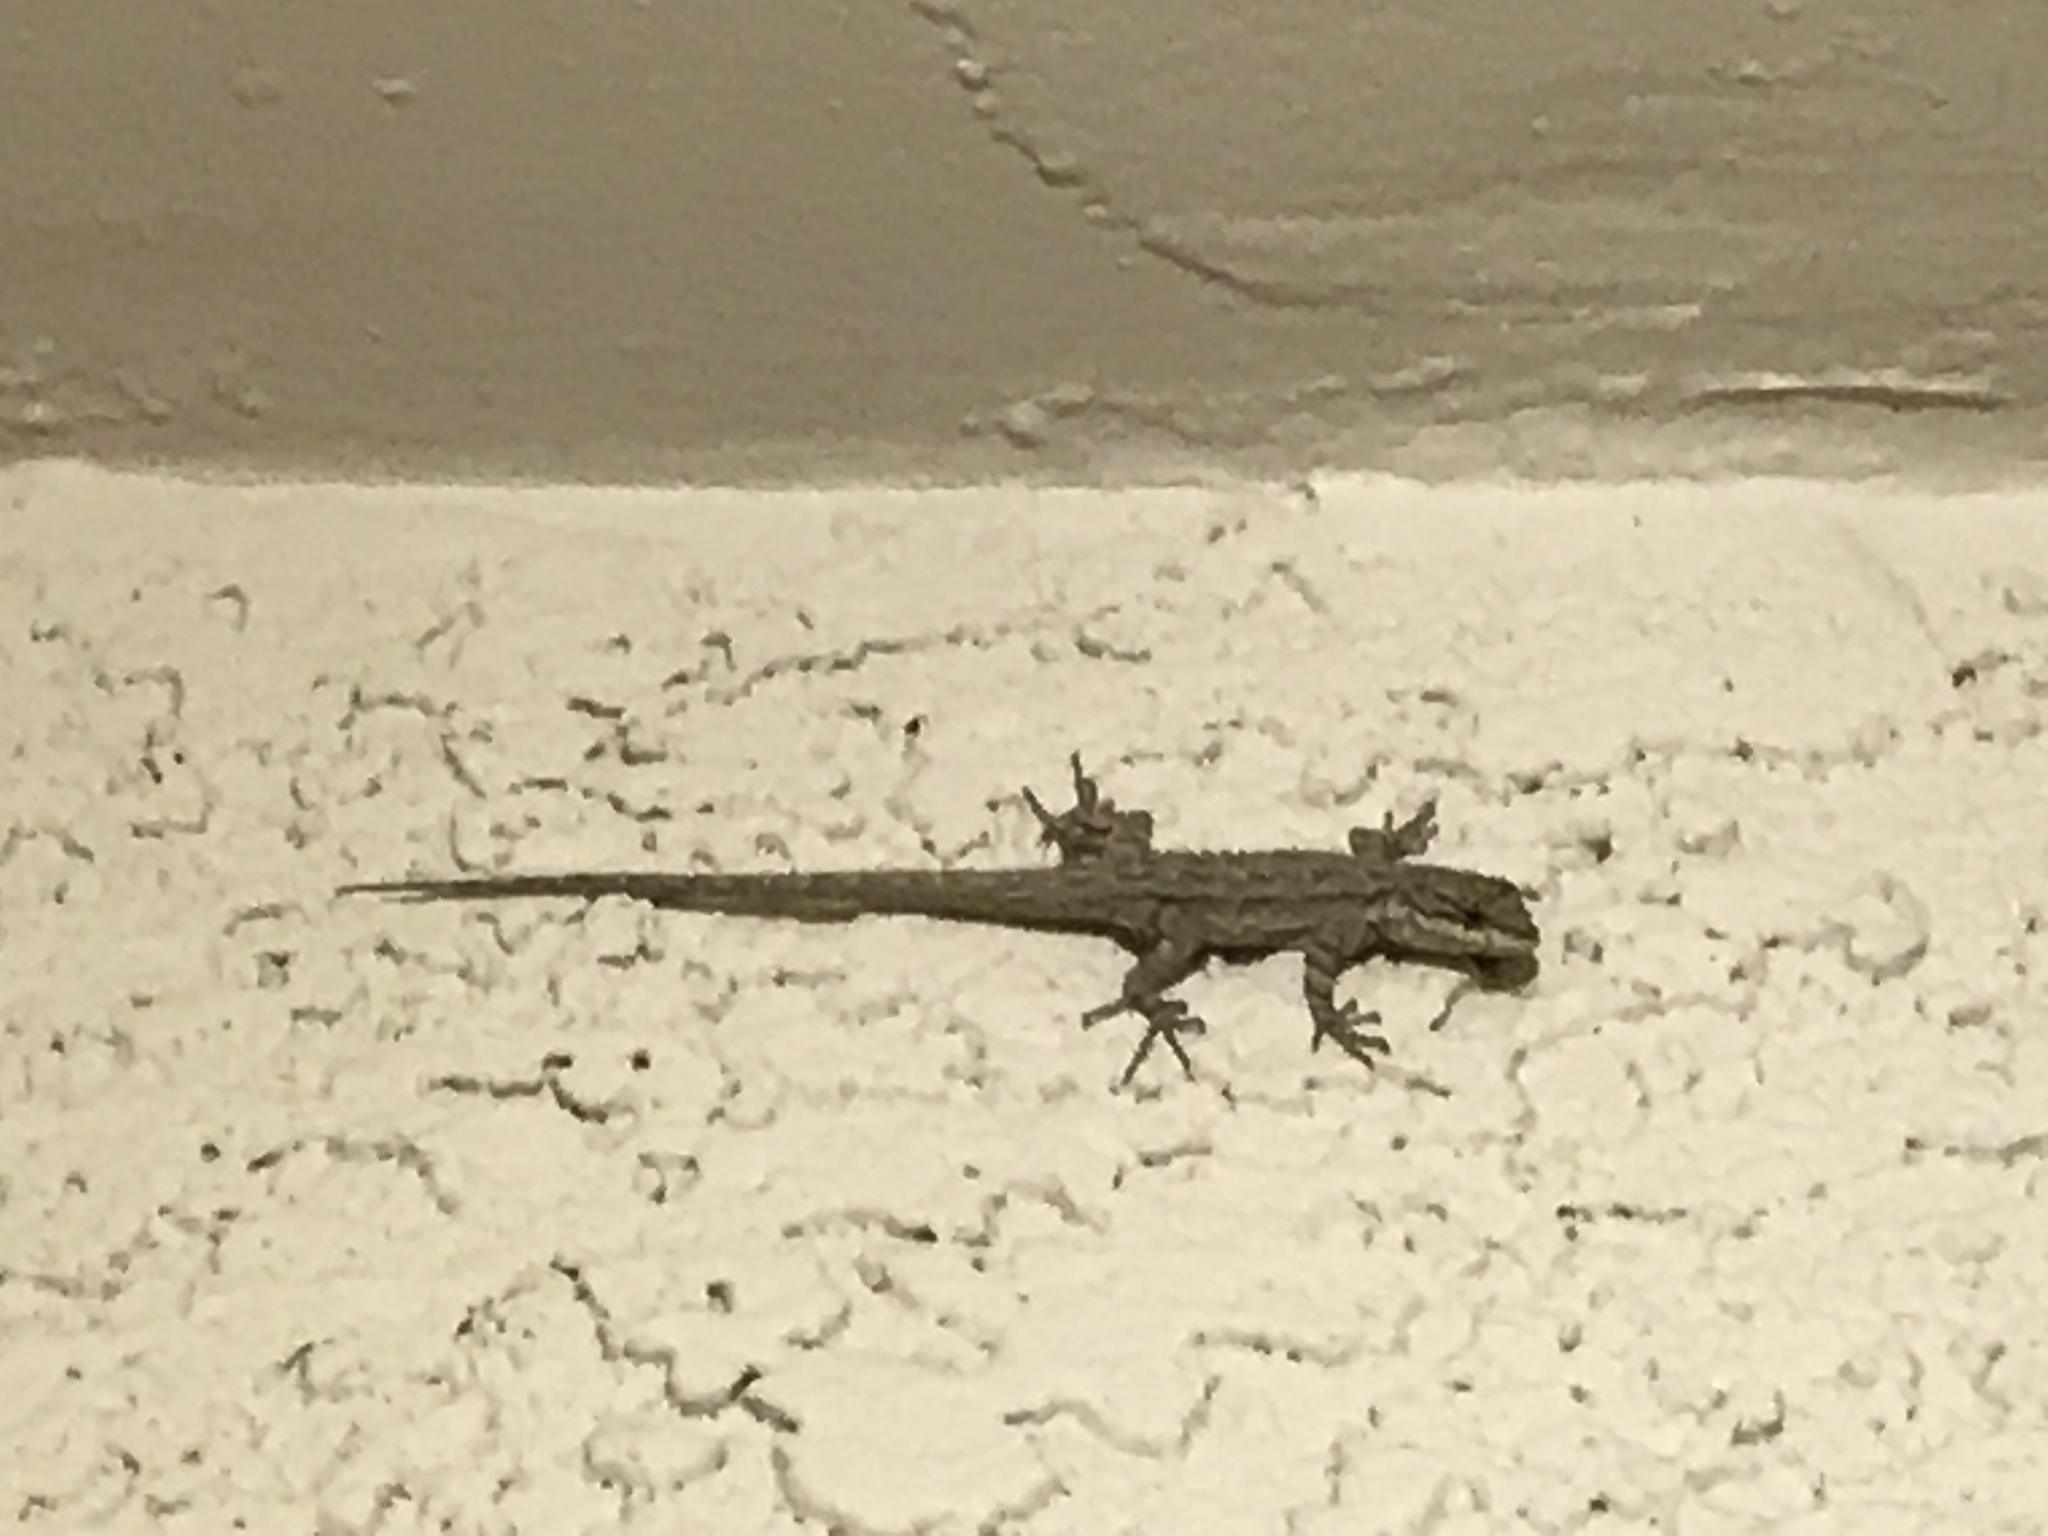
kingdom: Animalia
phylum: Chordata
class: Squamata
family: Phrynosomatidae
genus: Urosaurus
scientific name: Urosaurus ornatus
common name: Ornate tree lizard
